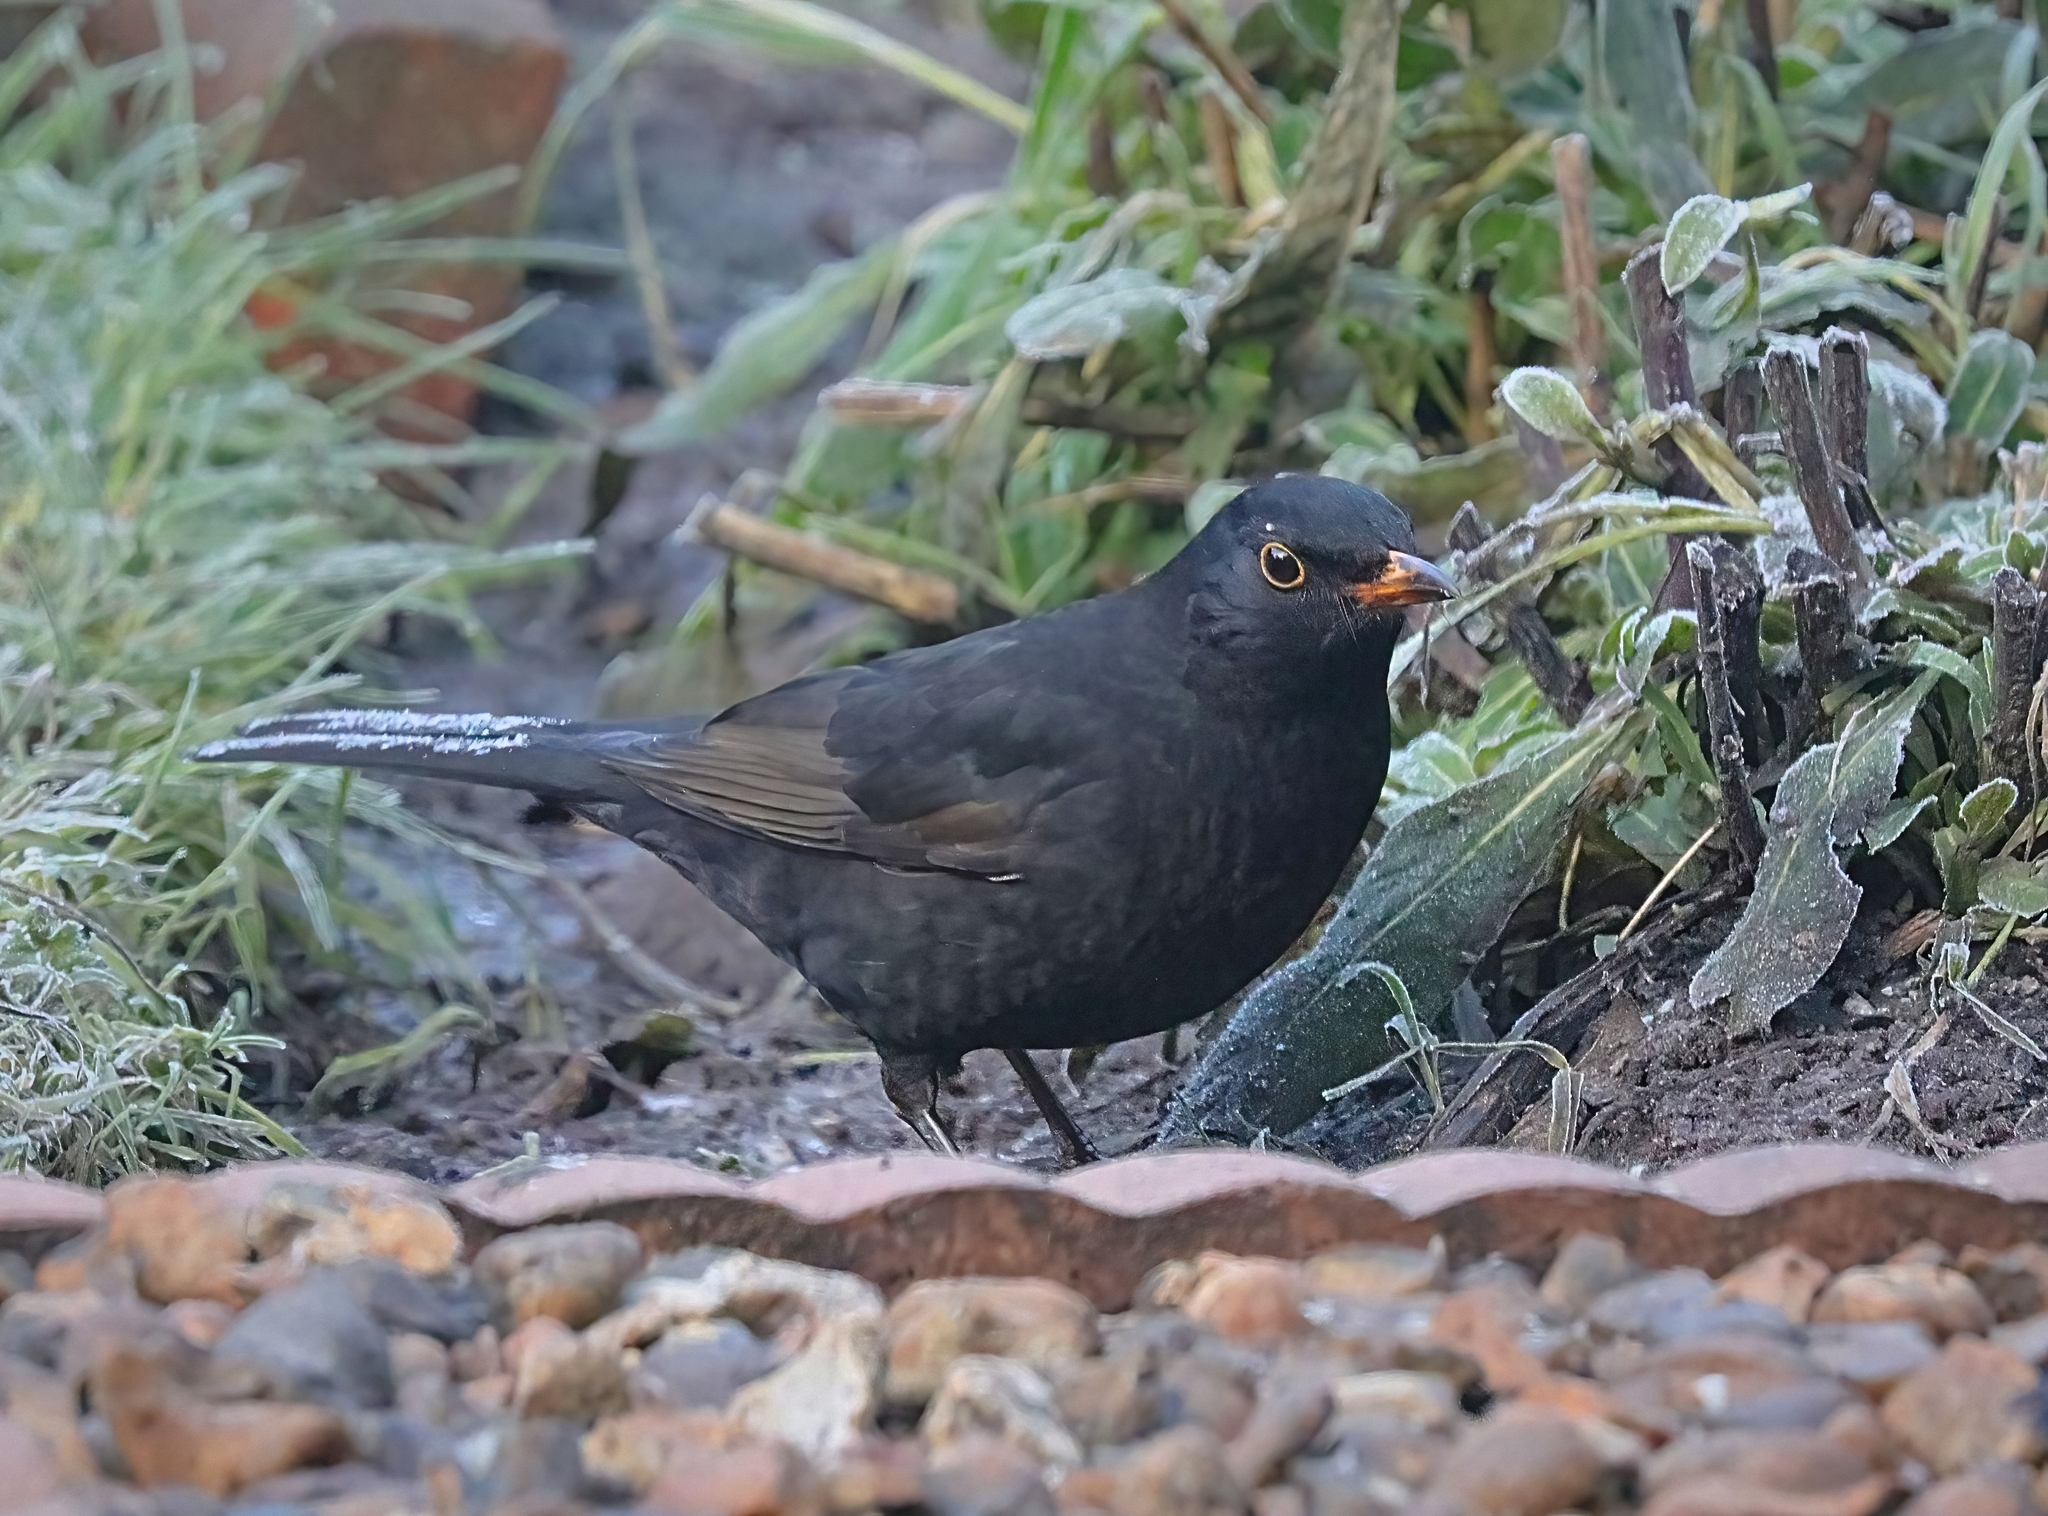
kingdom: Animalia
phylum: Chordata
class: Aves
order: Passeriformes
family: Turdidae
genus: Turdus
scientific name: Turdus merula
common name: Common blackbird
